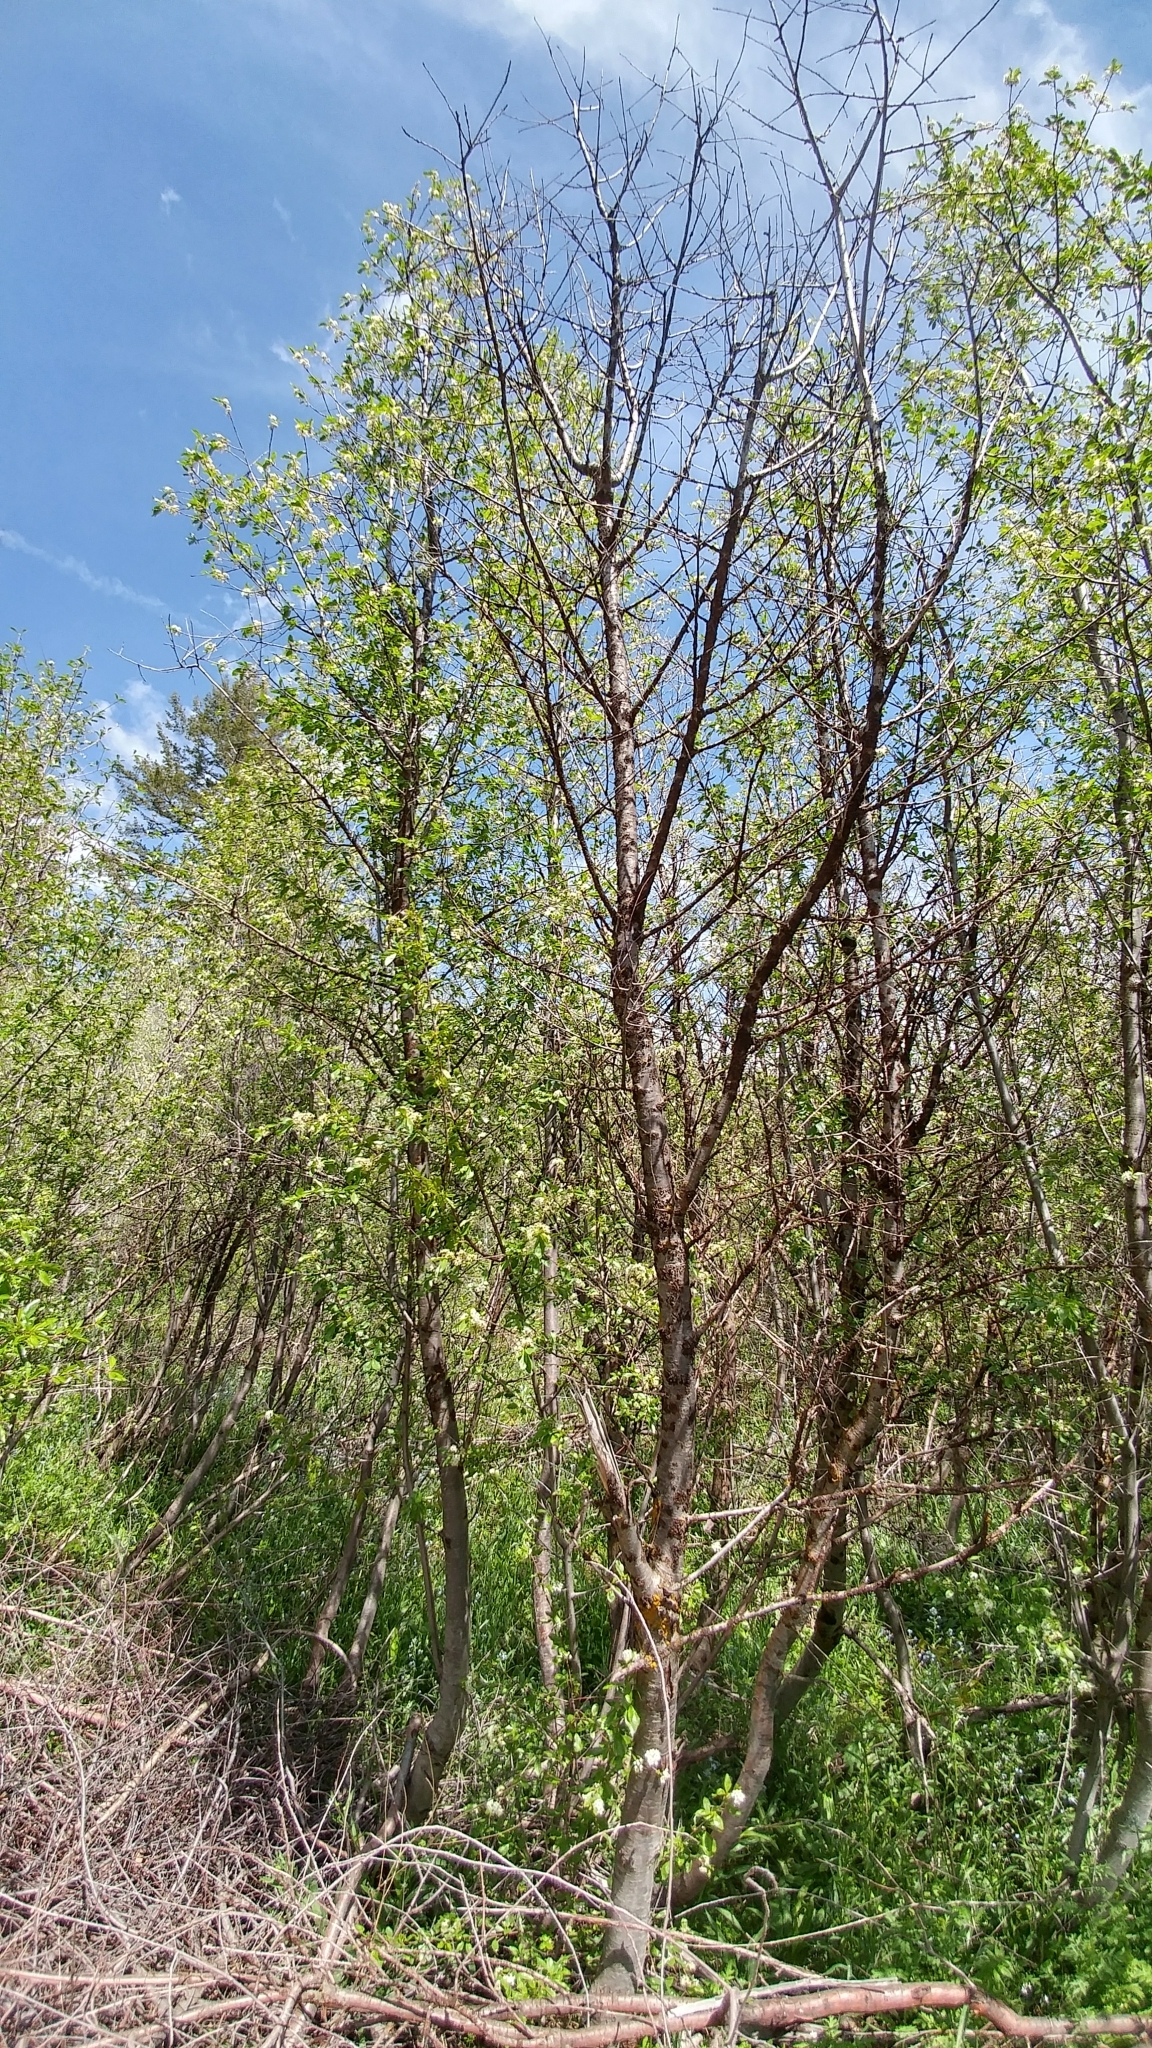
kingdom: Plantae
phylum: Tracheophyta
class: Magnoliopsida
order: Rosales
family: Rosaceae
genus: Prunus
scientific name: Prunus emarginata
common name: Bitter cherry
